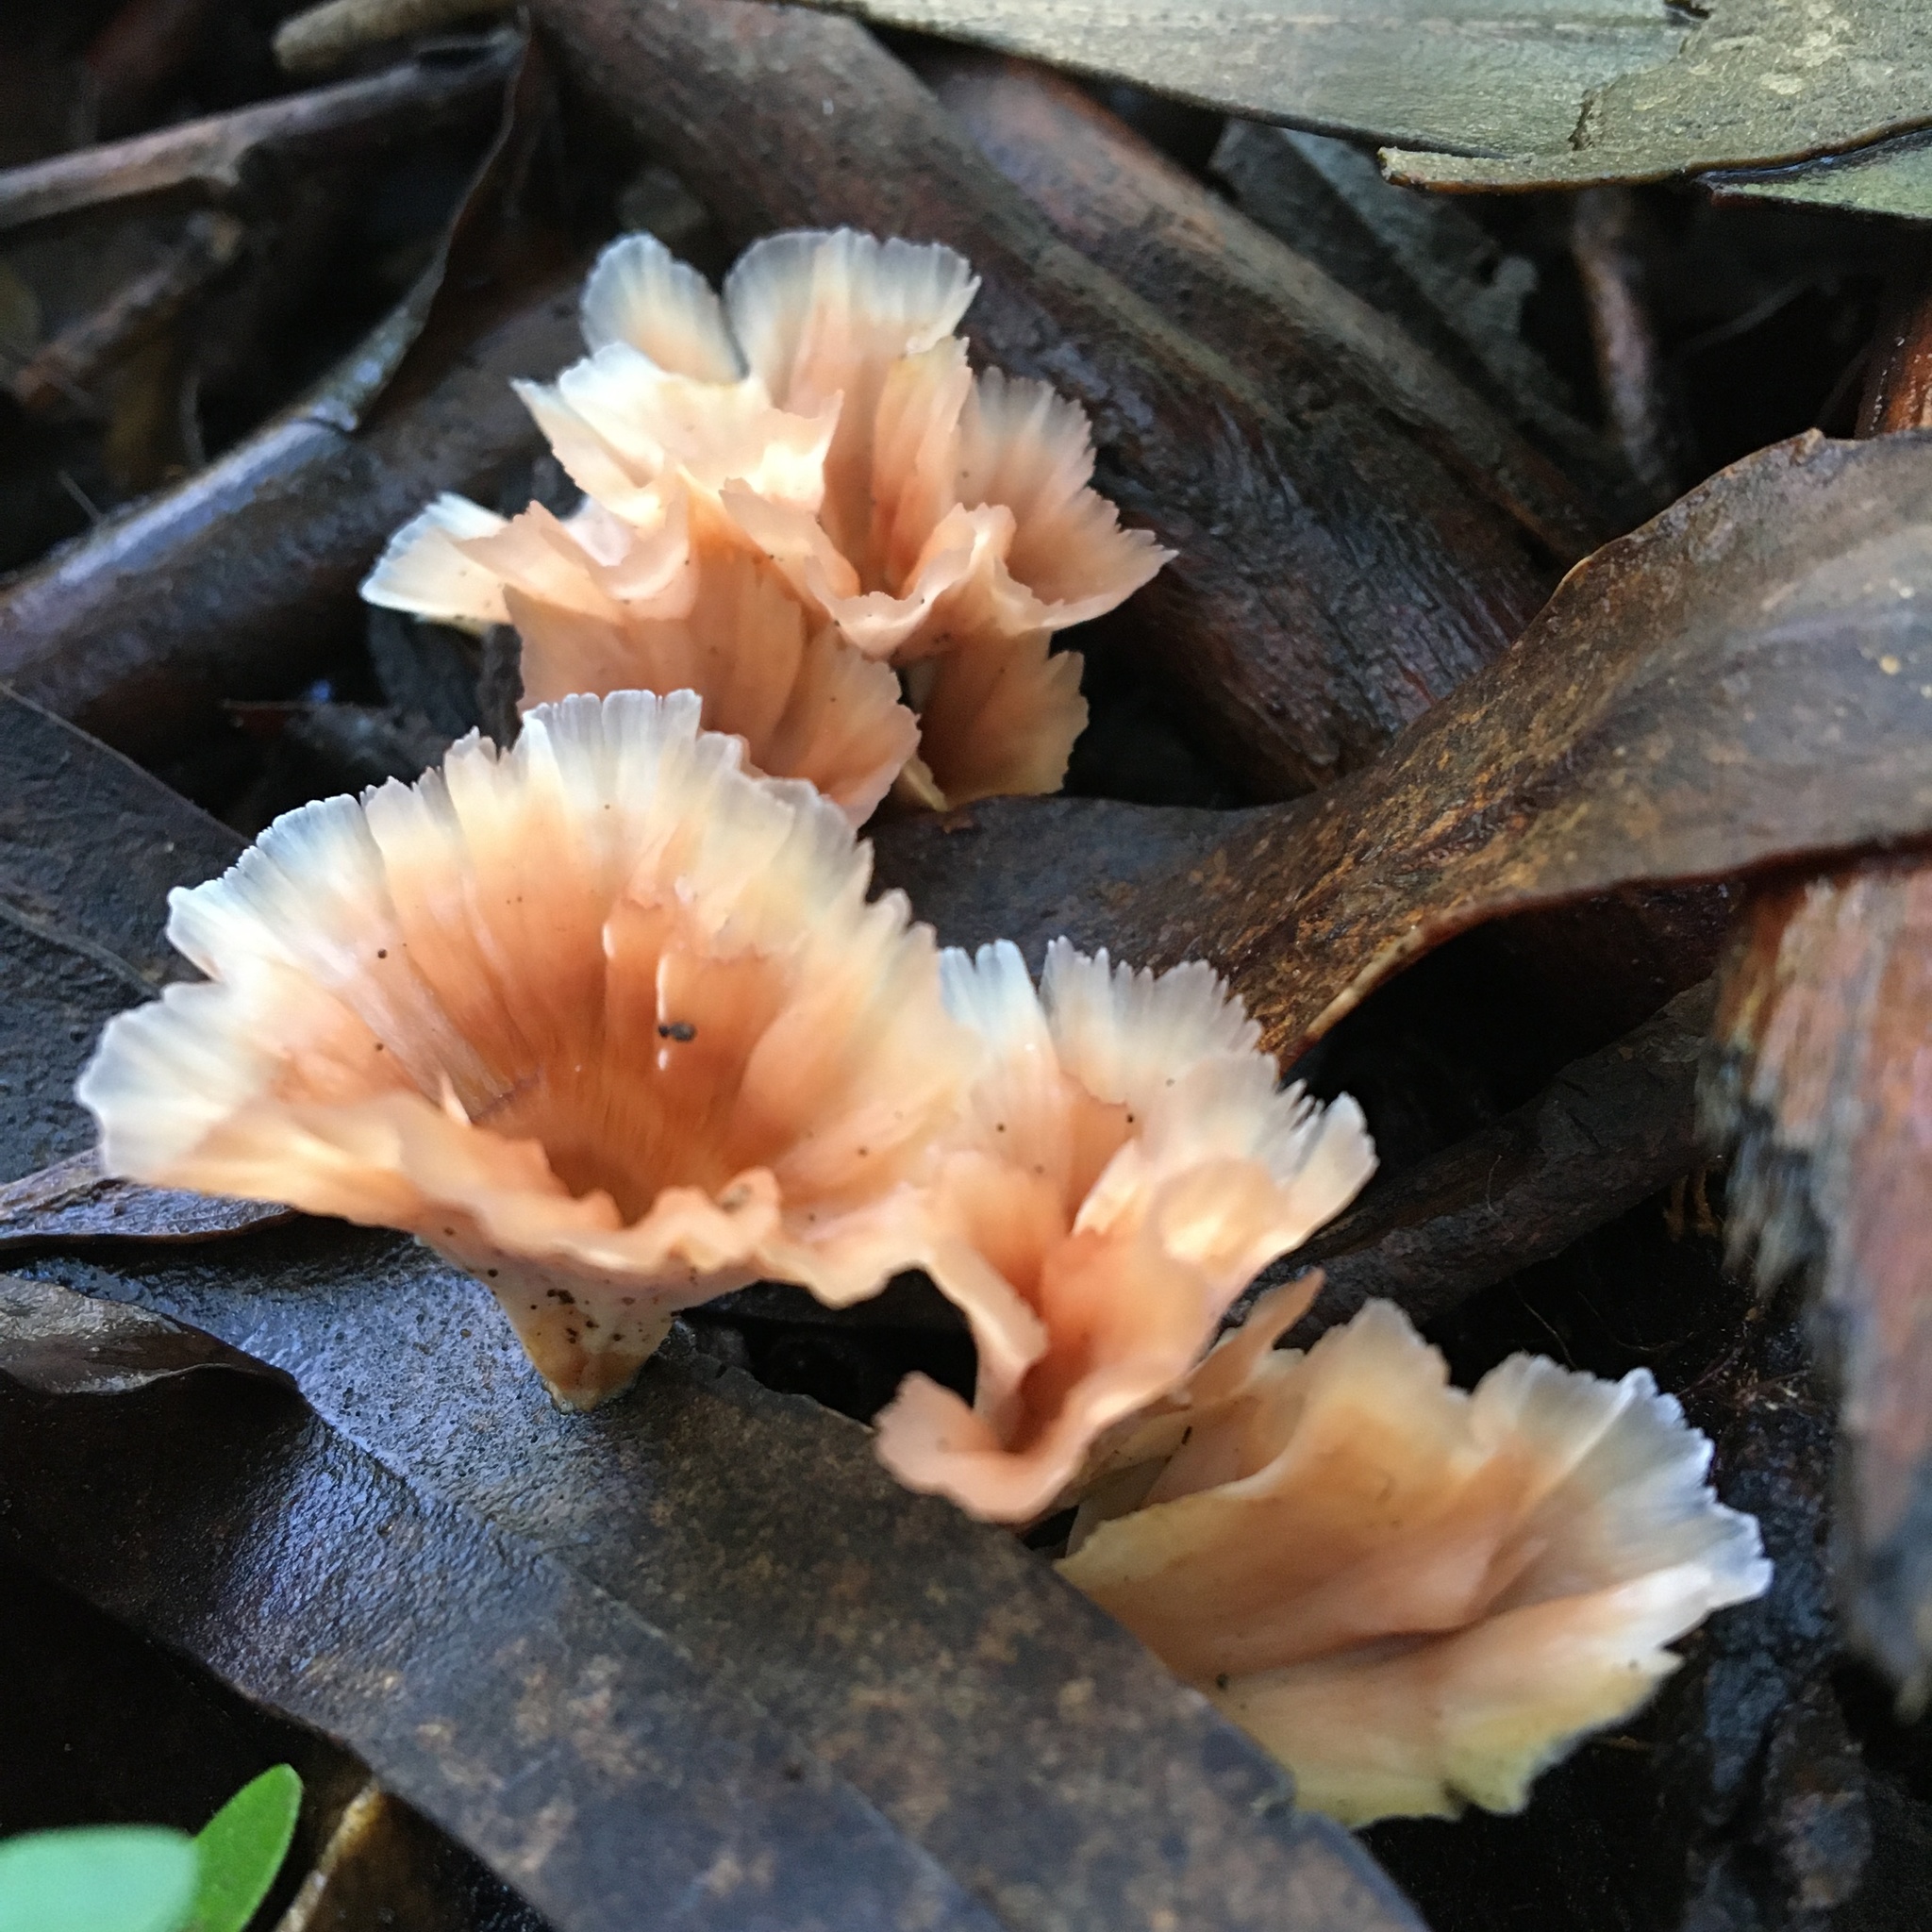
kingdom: Fungi
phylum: Basidiomycota
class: Agaricomycetes
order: Polyporales
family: Podoscyphaceae
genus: Podoscypha
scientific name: Podoscypha petalodes
